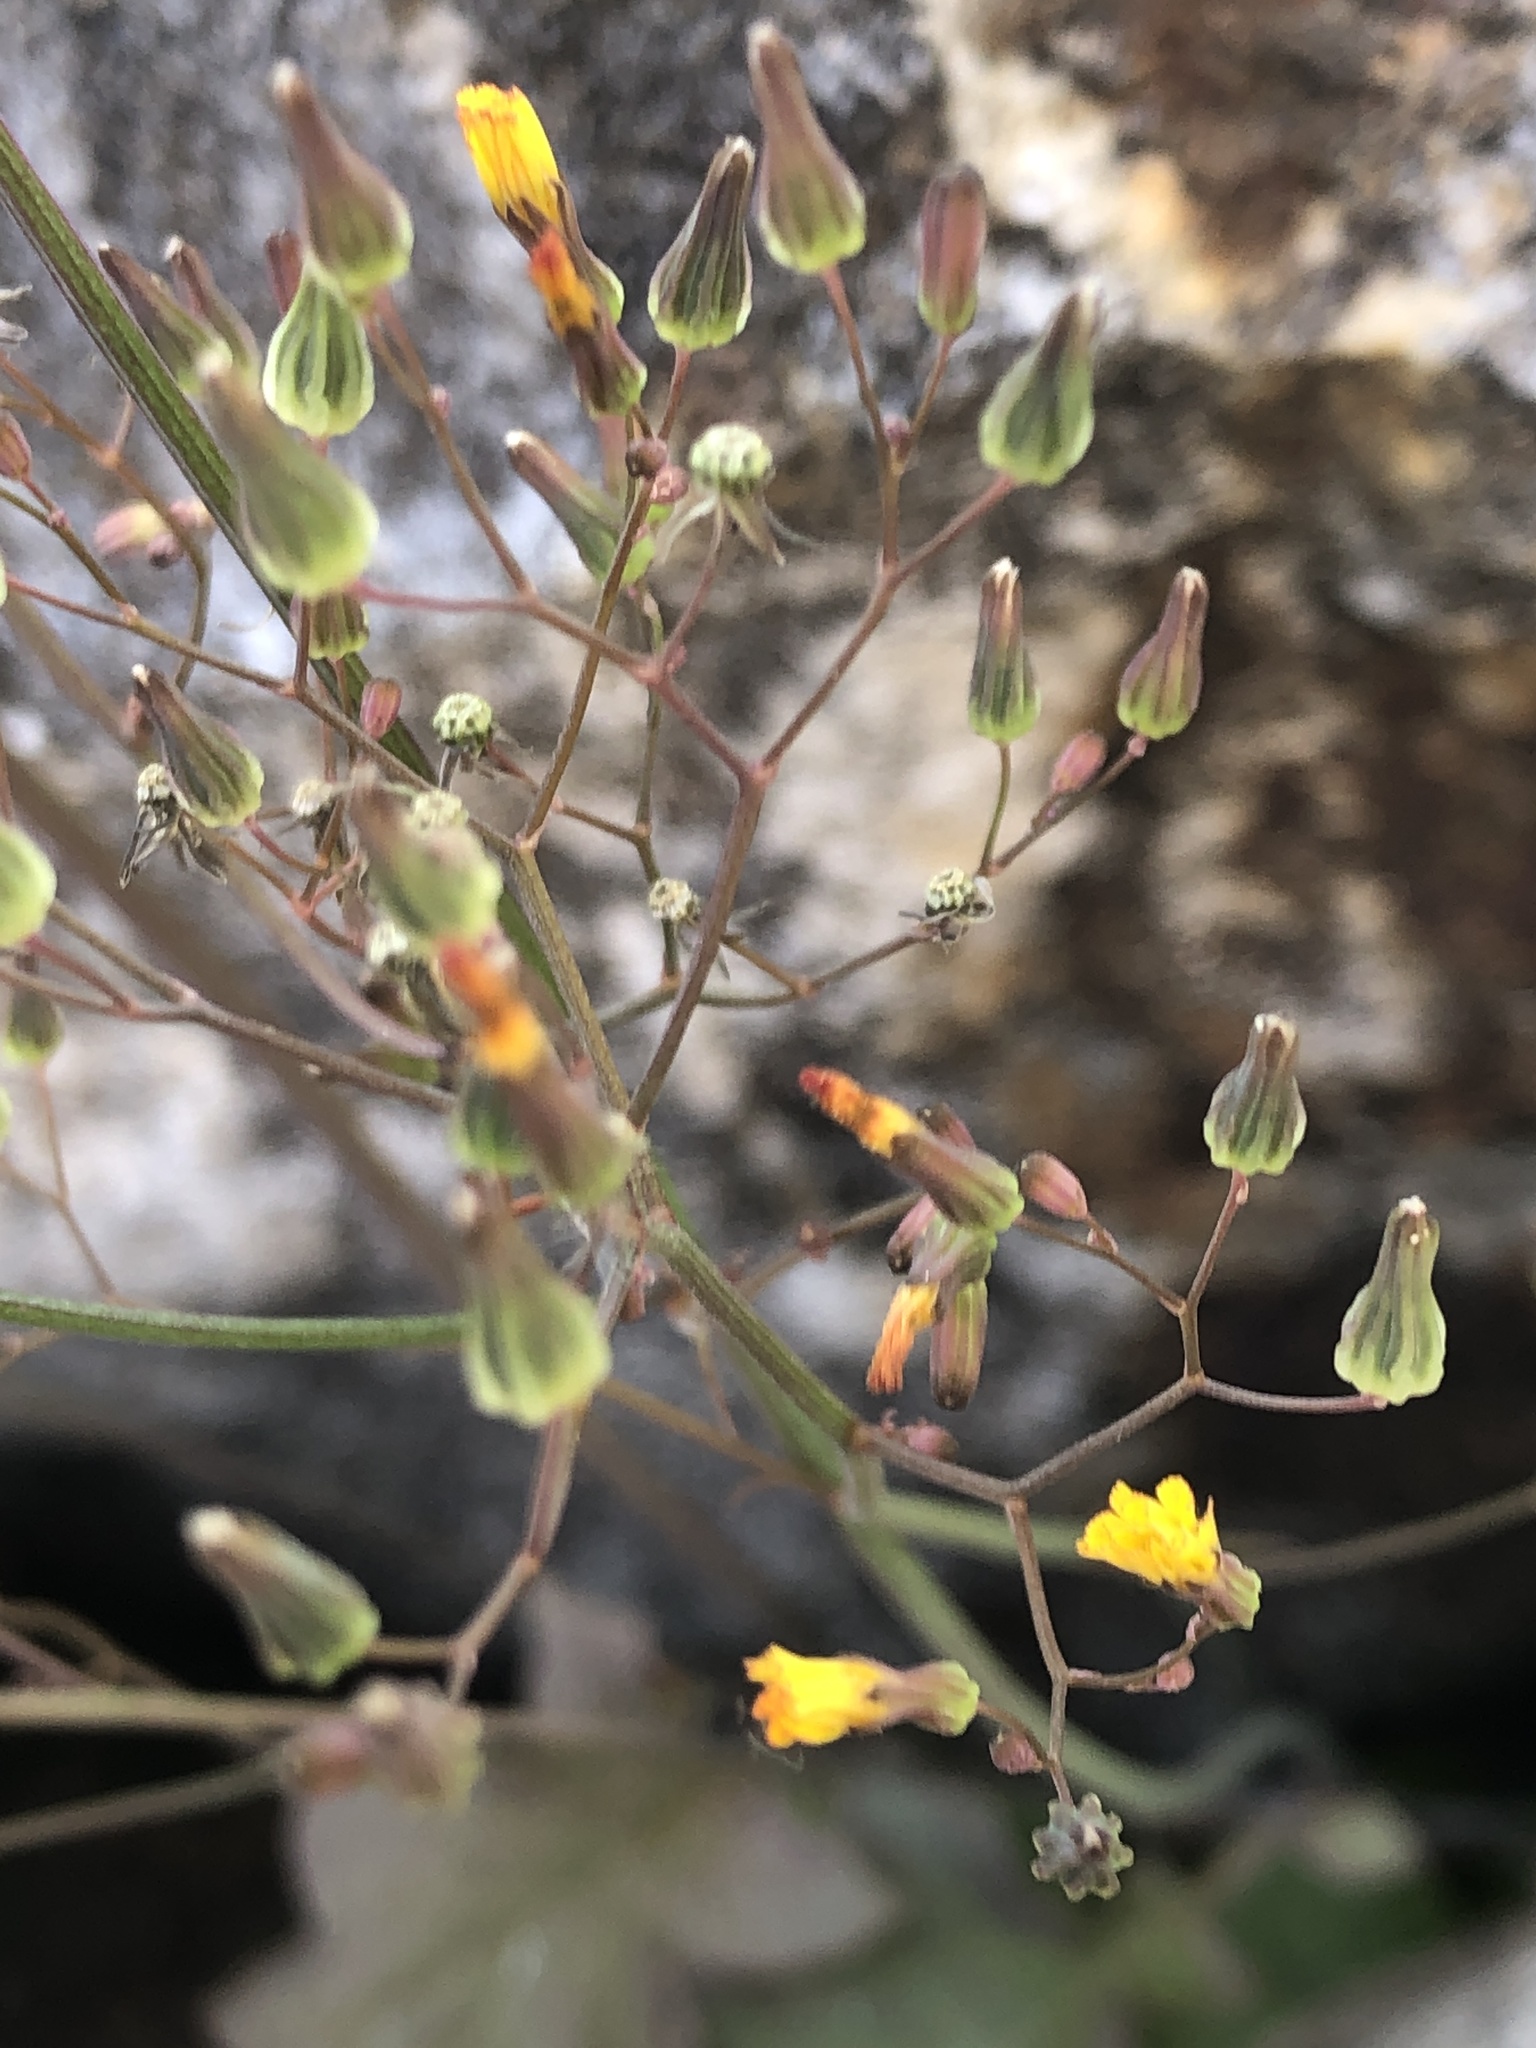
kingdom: Plantae
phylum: Tracheophyta
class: Magnoliopsida
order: Asterales
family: Asteraceae
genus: Youngia
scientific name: Youngia japonica
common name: Oriental false hawksbeard
